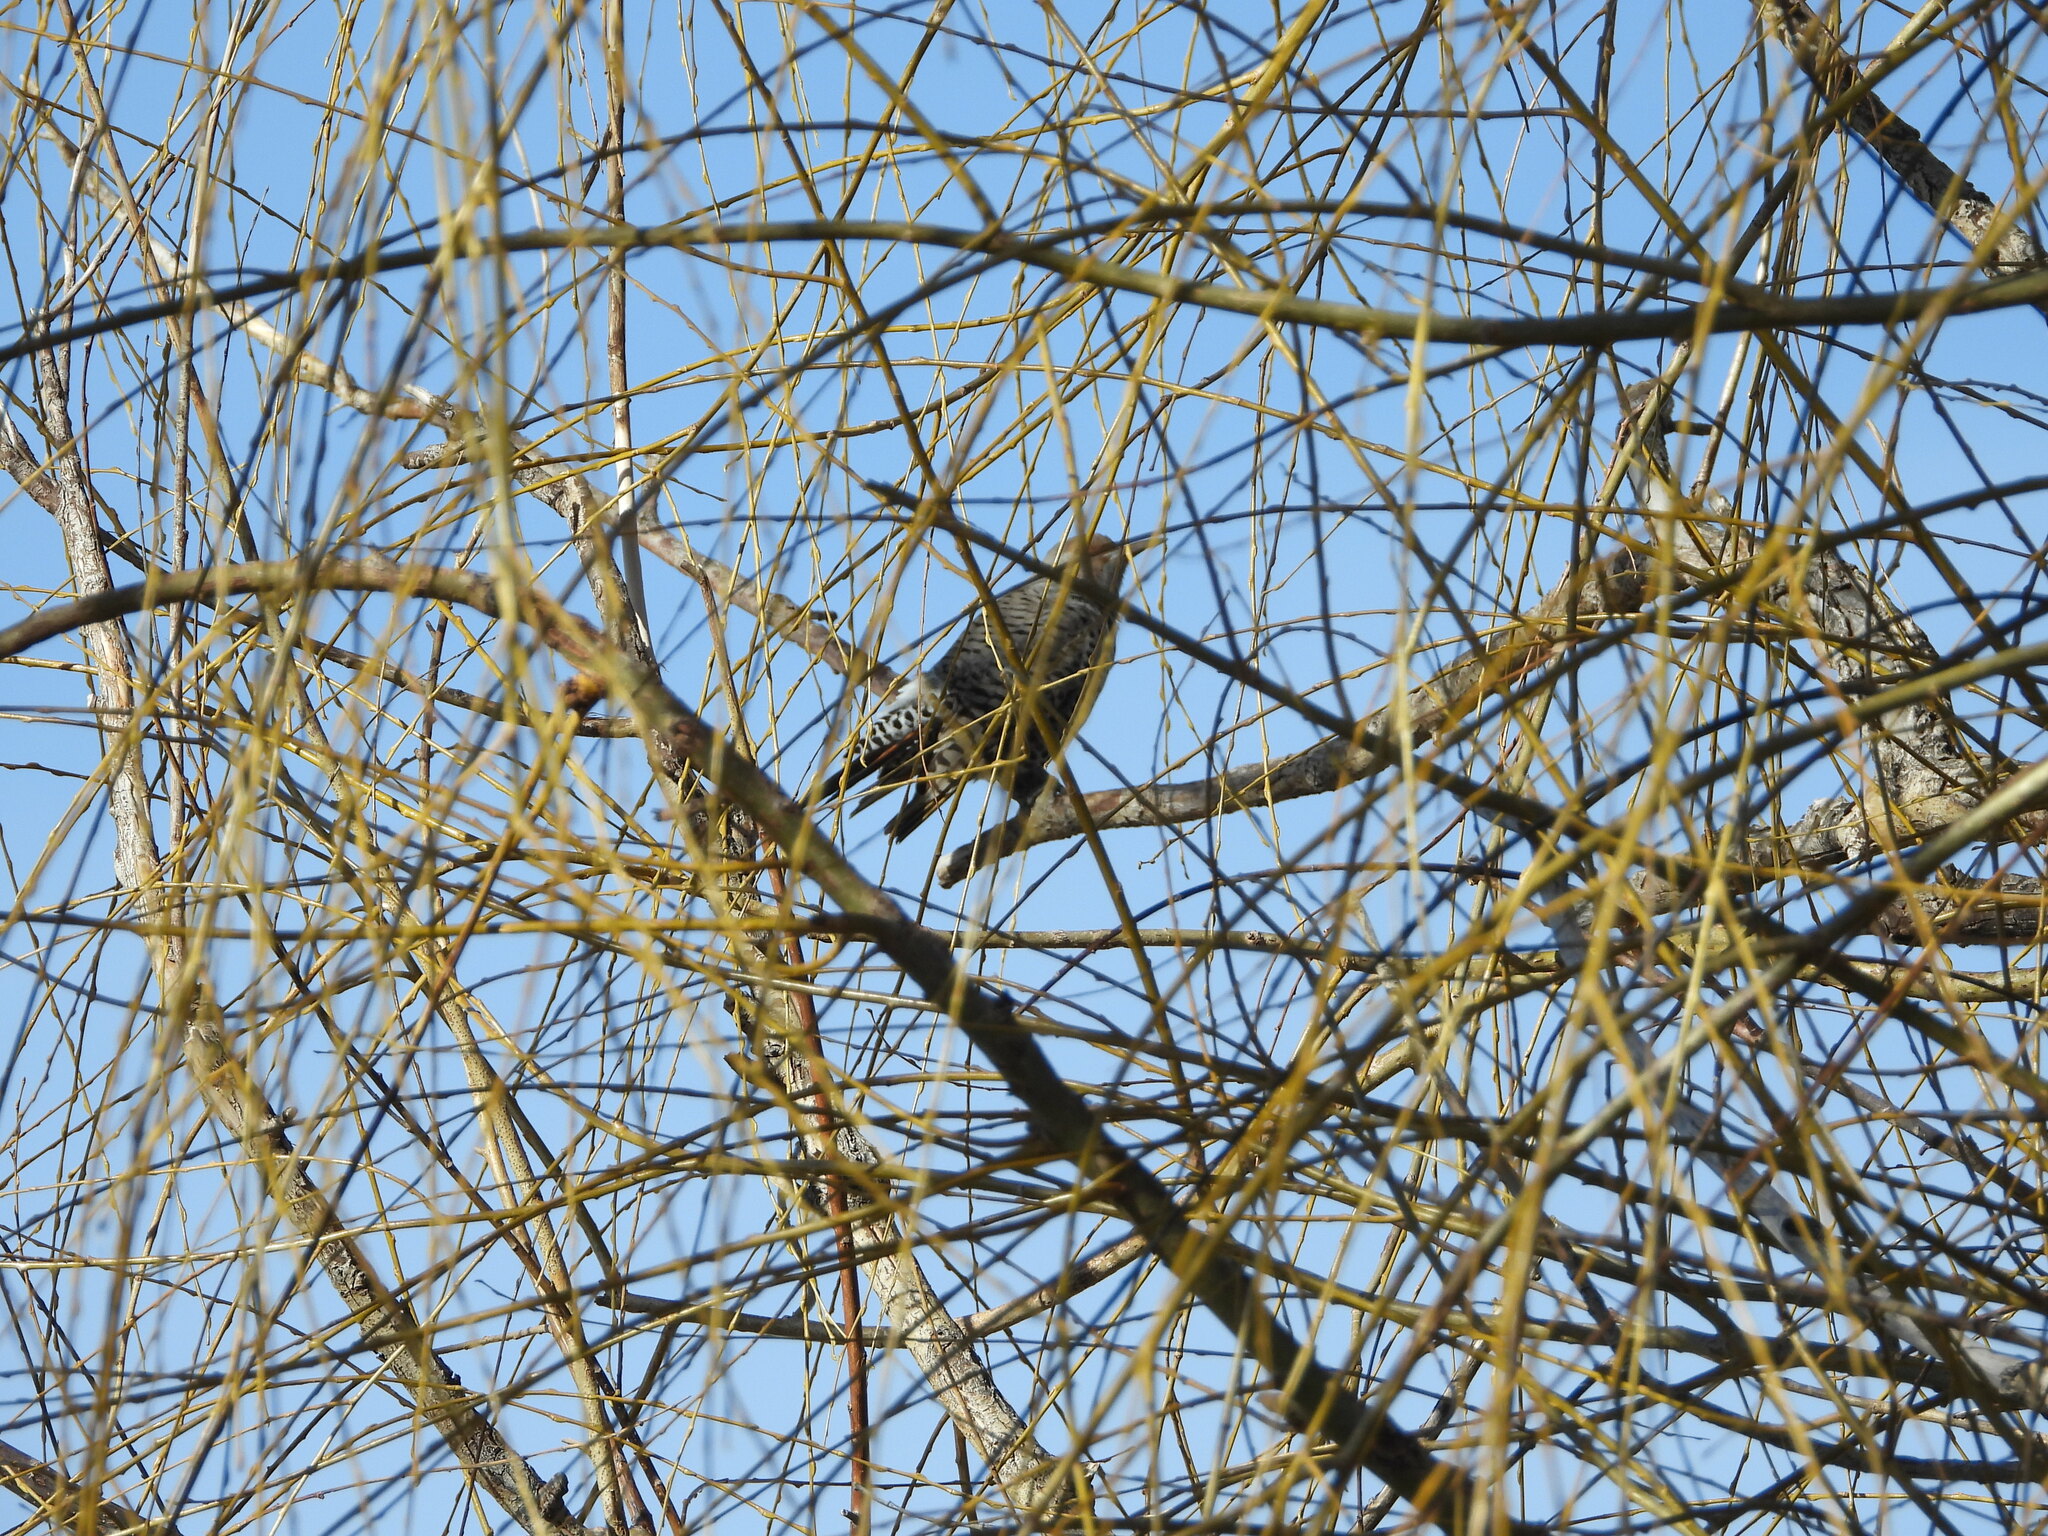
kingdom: Animalia
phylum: Chordata
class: Aves
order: Piciformes
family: Picidae
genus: Colaptes
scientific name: Colaptes auratus
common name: Northern flicker
